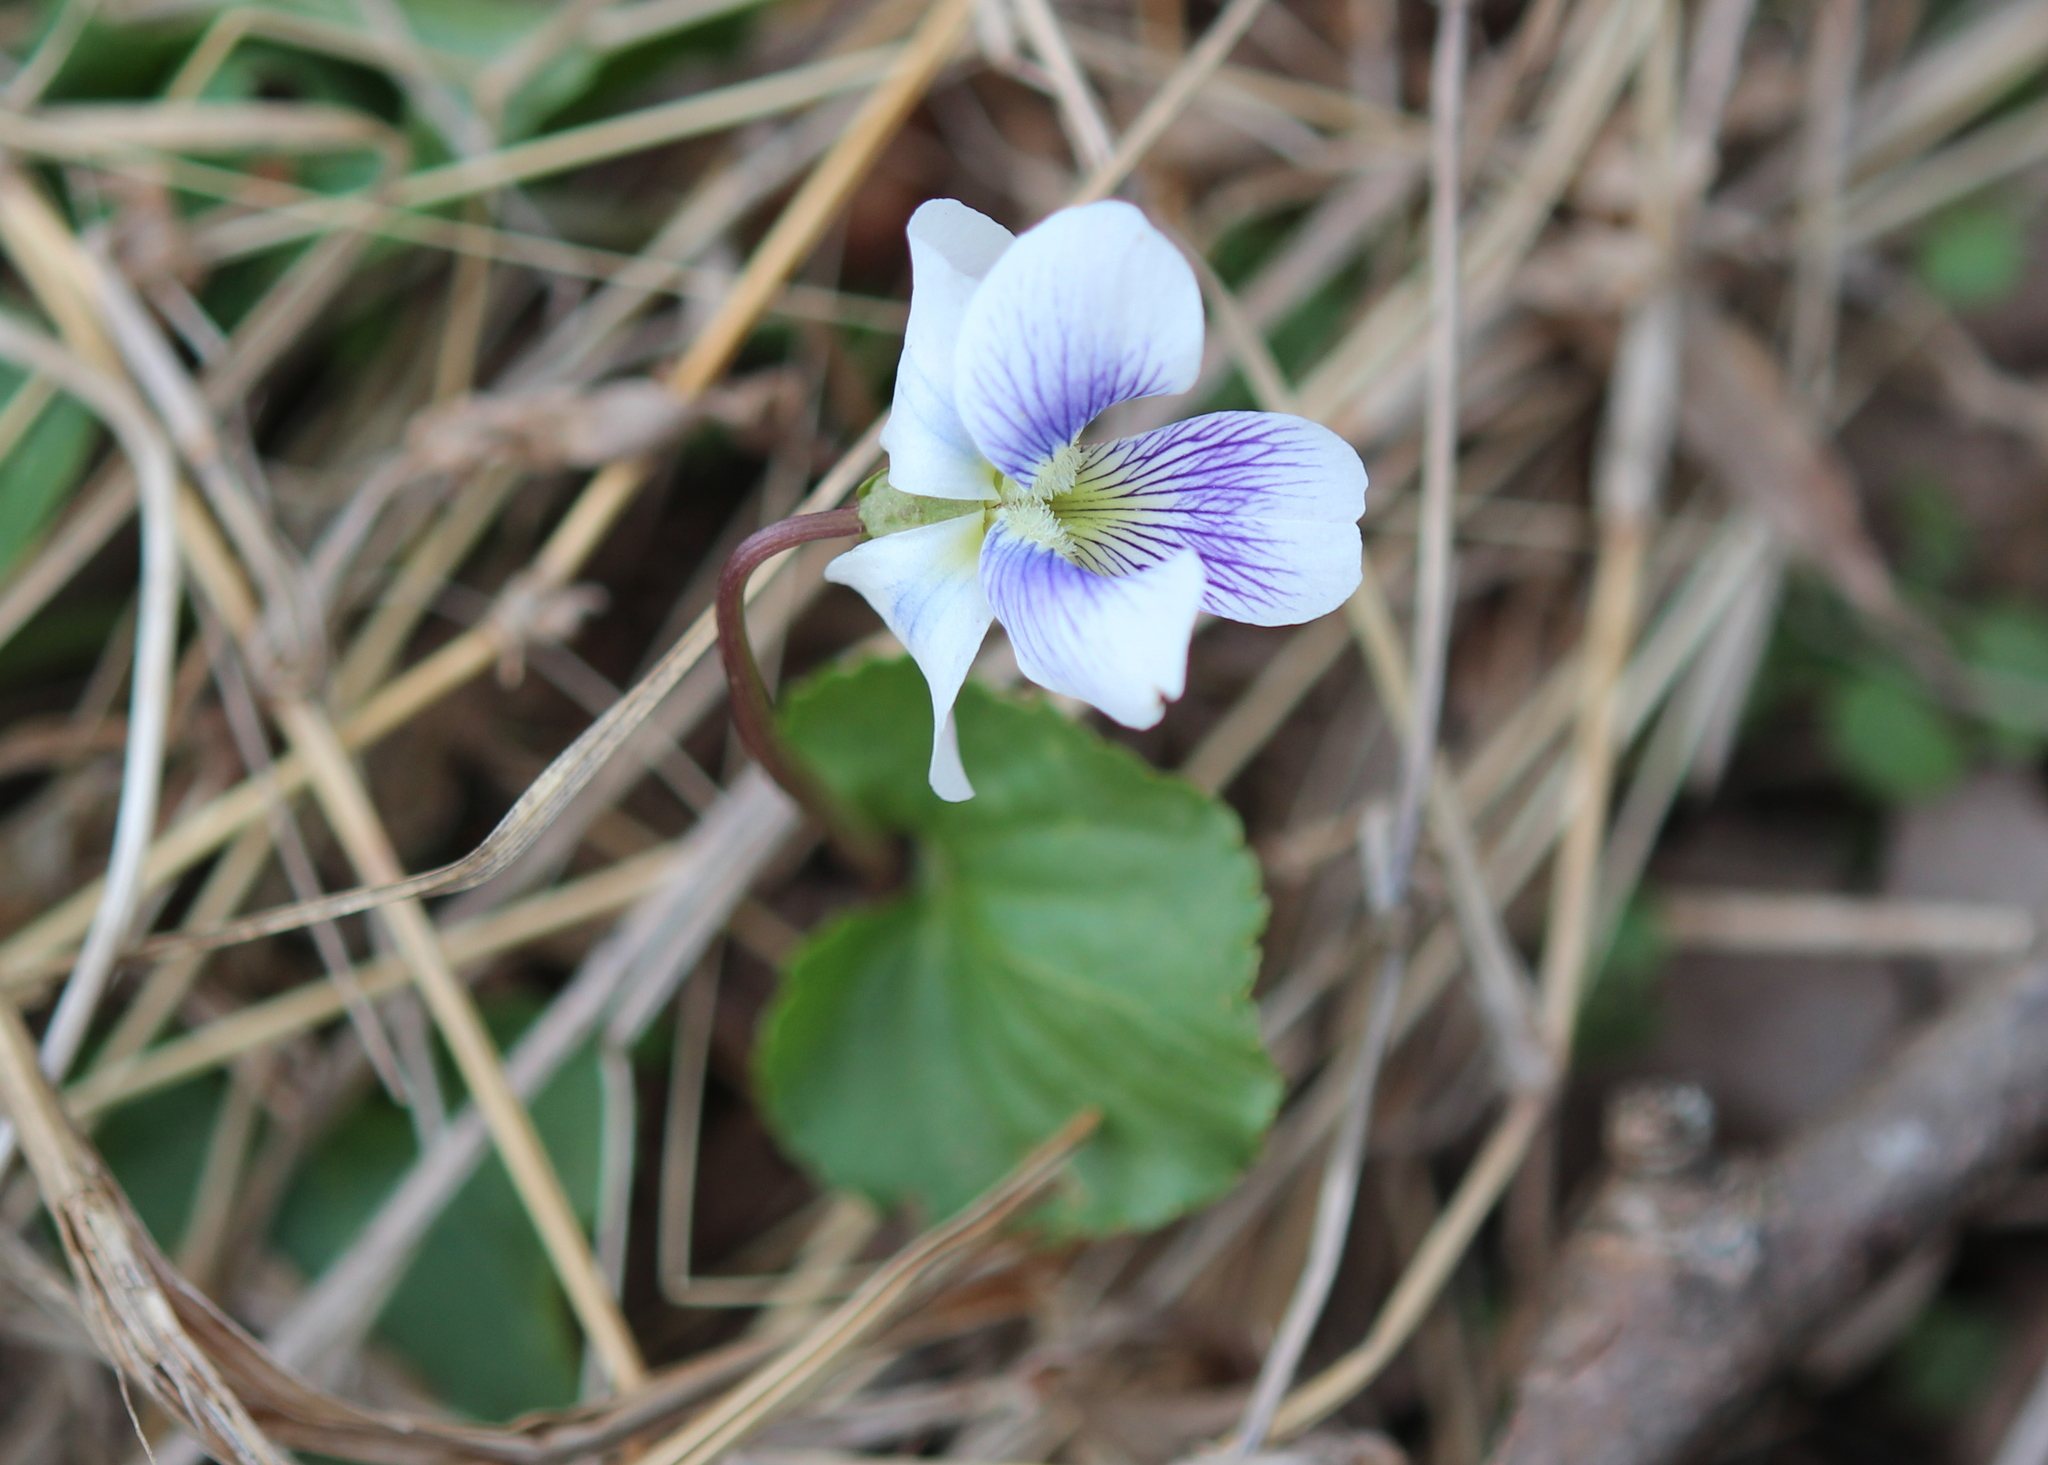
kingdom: Plantae
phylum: Tracheophyta
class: Magnoliopsida
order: Malpighiales
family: Violaceae
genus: Viola
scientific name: Viola sororia
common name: Dooryard violet
